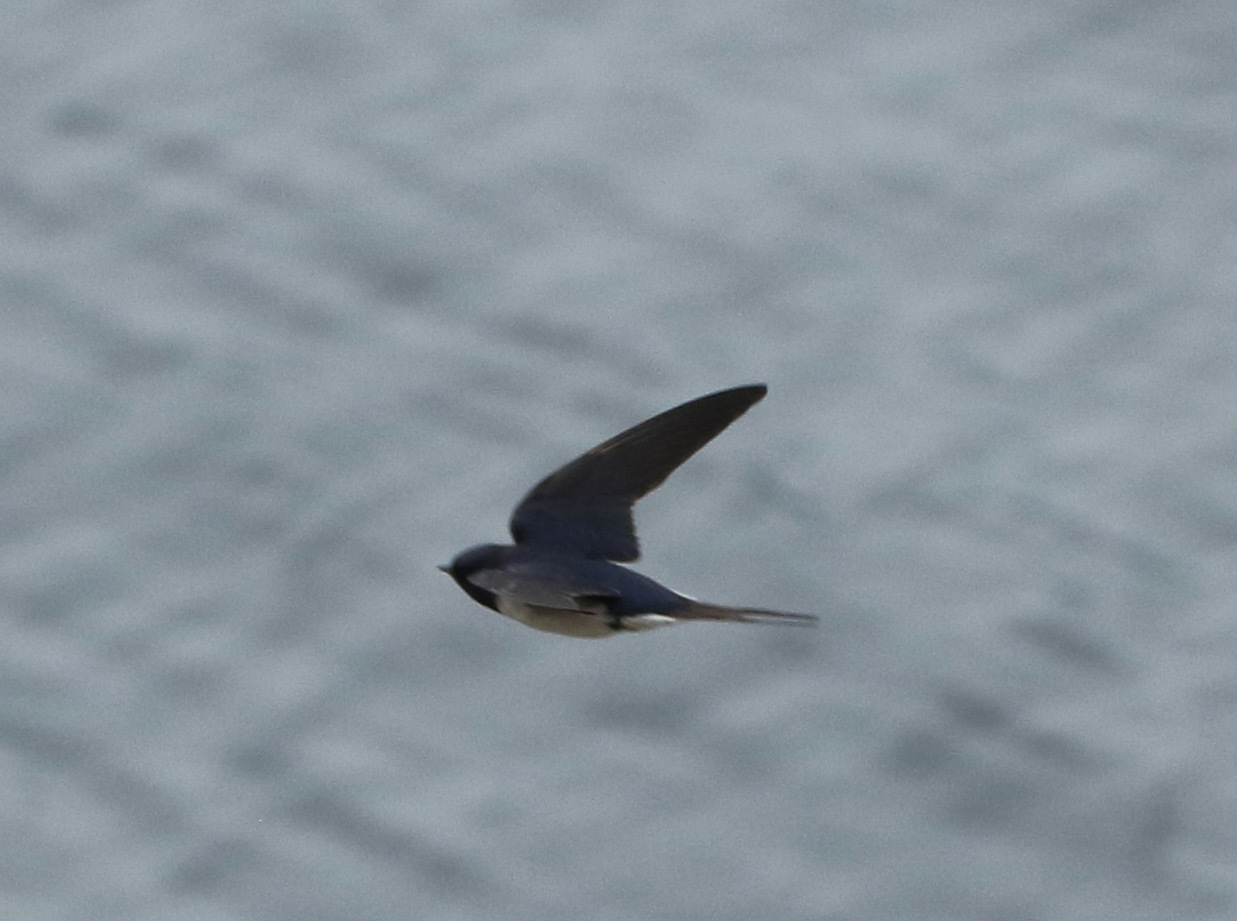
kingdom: Animalia
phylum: Chordata
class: Aves
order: Passeriformes
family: Hirundinidae
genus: Hirundo
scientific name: Hirundo rustica
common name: Barn swallow
